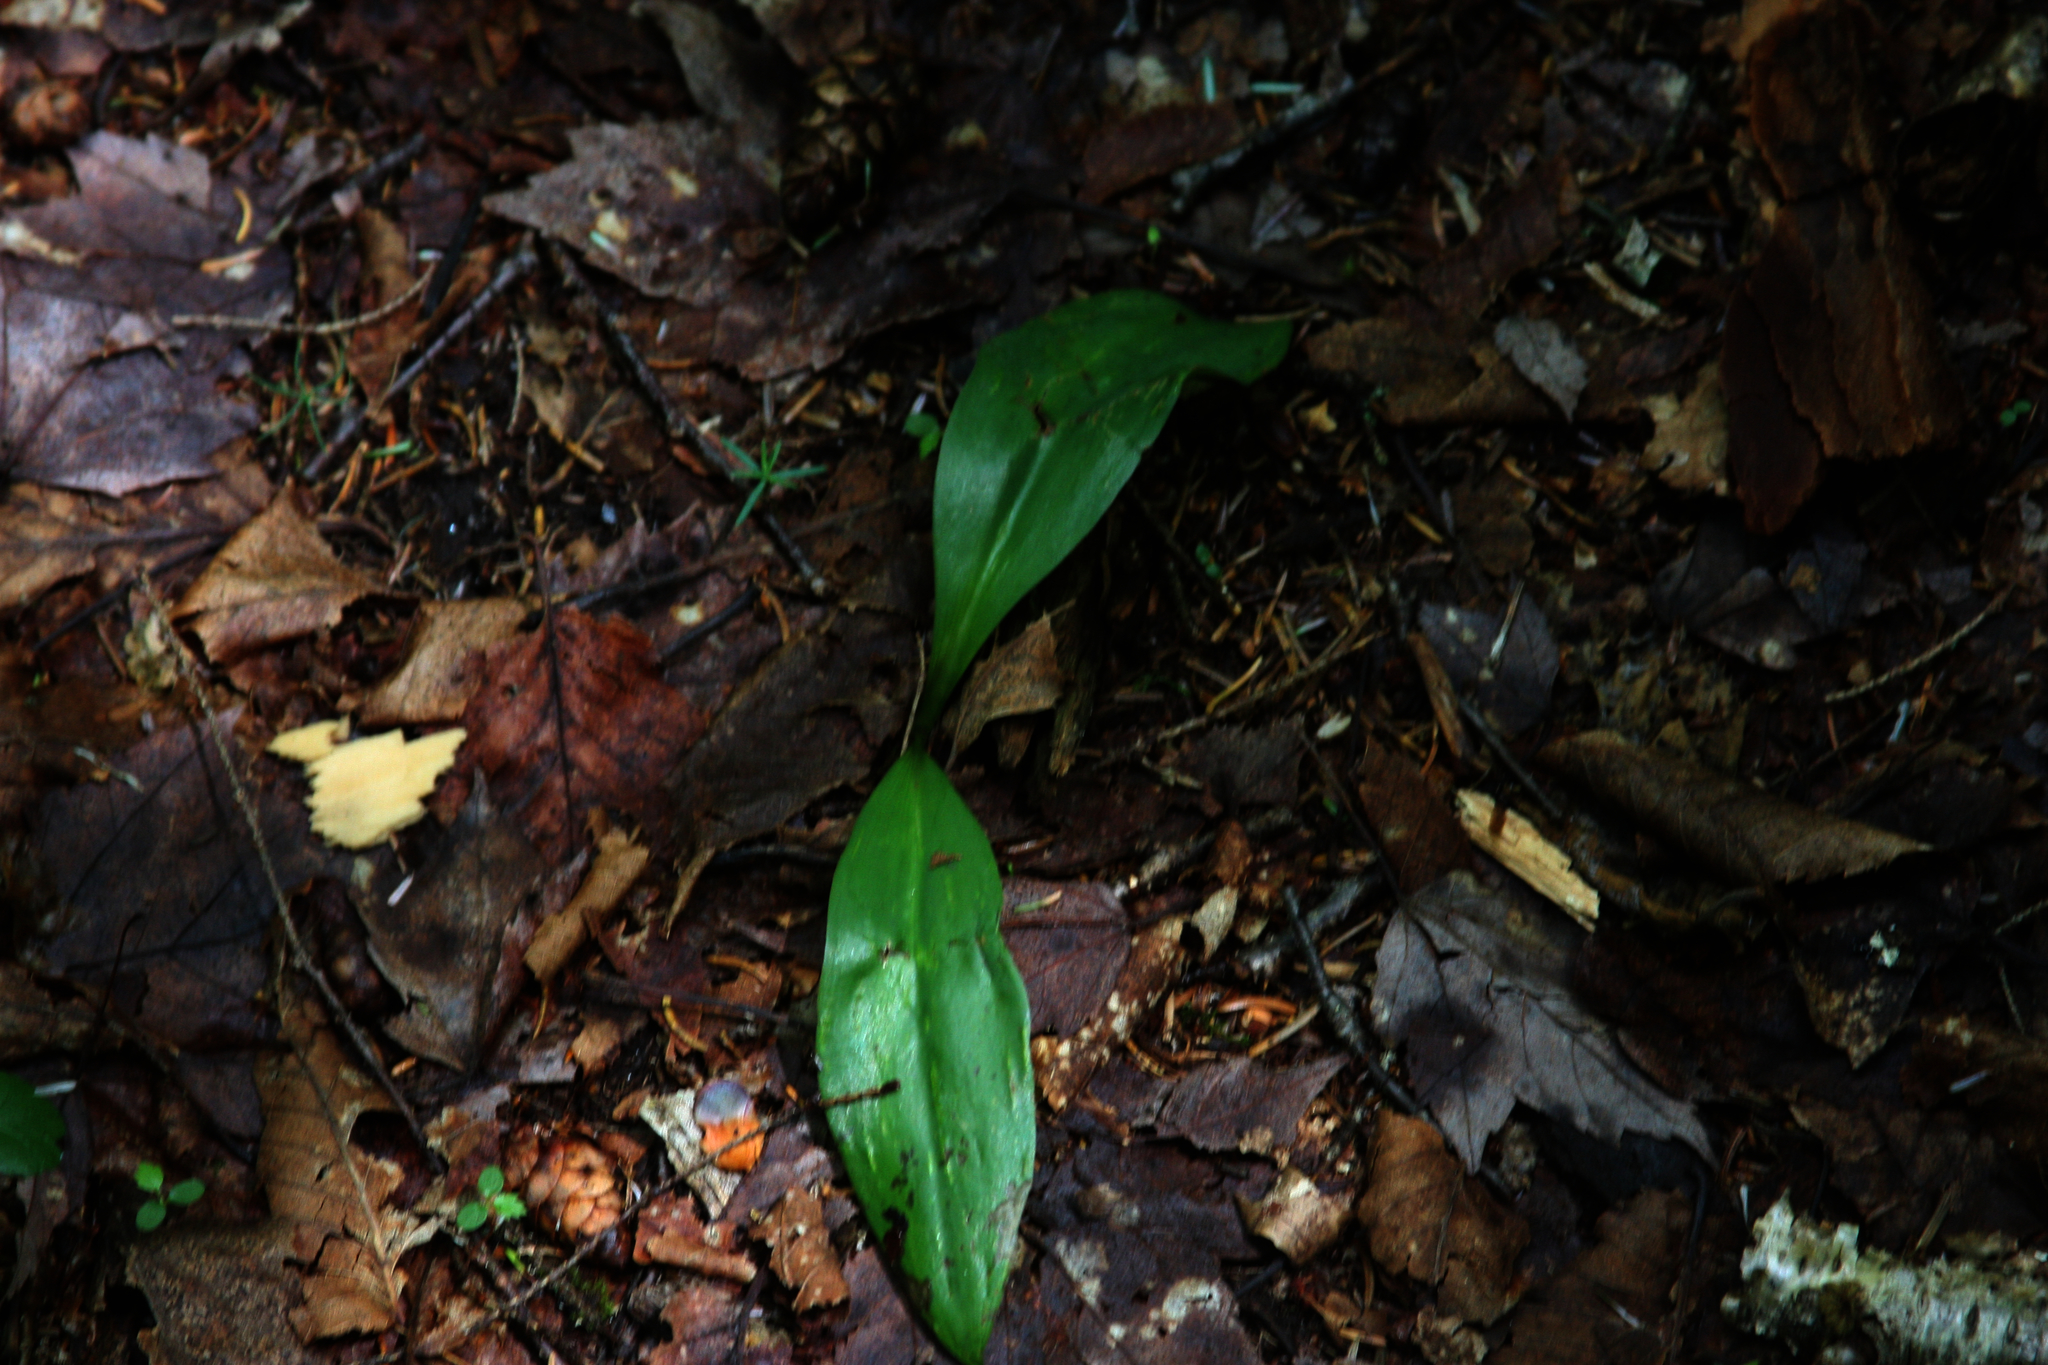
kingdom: Plantae
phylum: Tracheophyta
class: Liliopsida
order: Liliales
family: Liliaceae
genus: Clintonia
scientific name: Clintonia borealis
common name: Yellow clintonia
